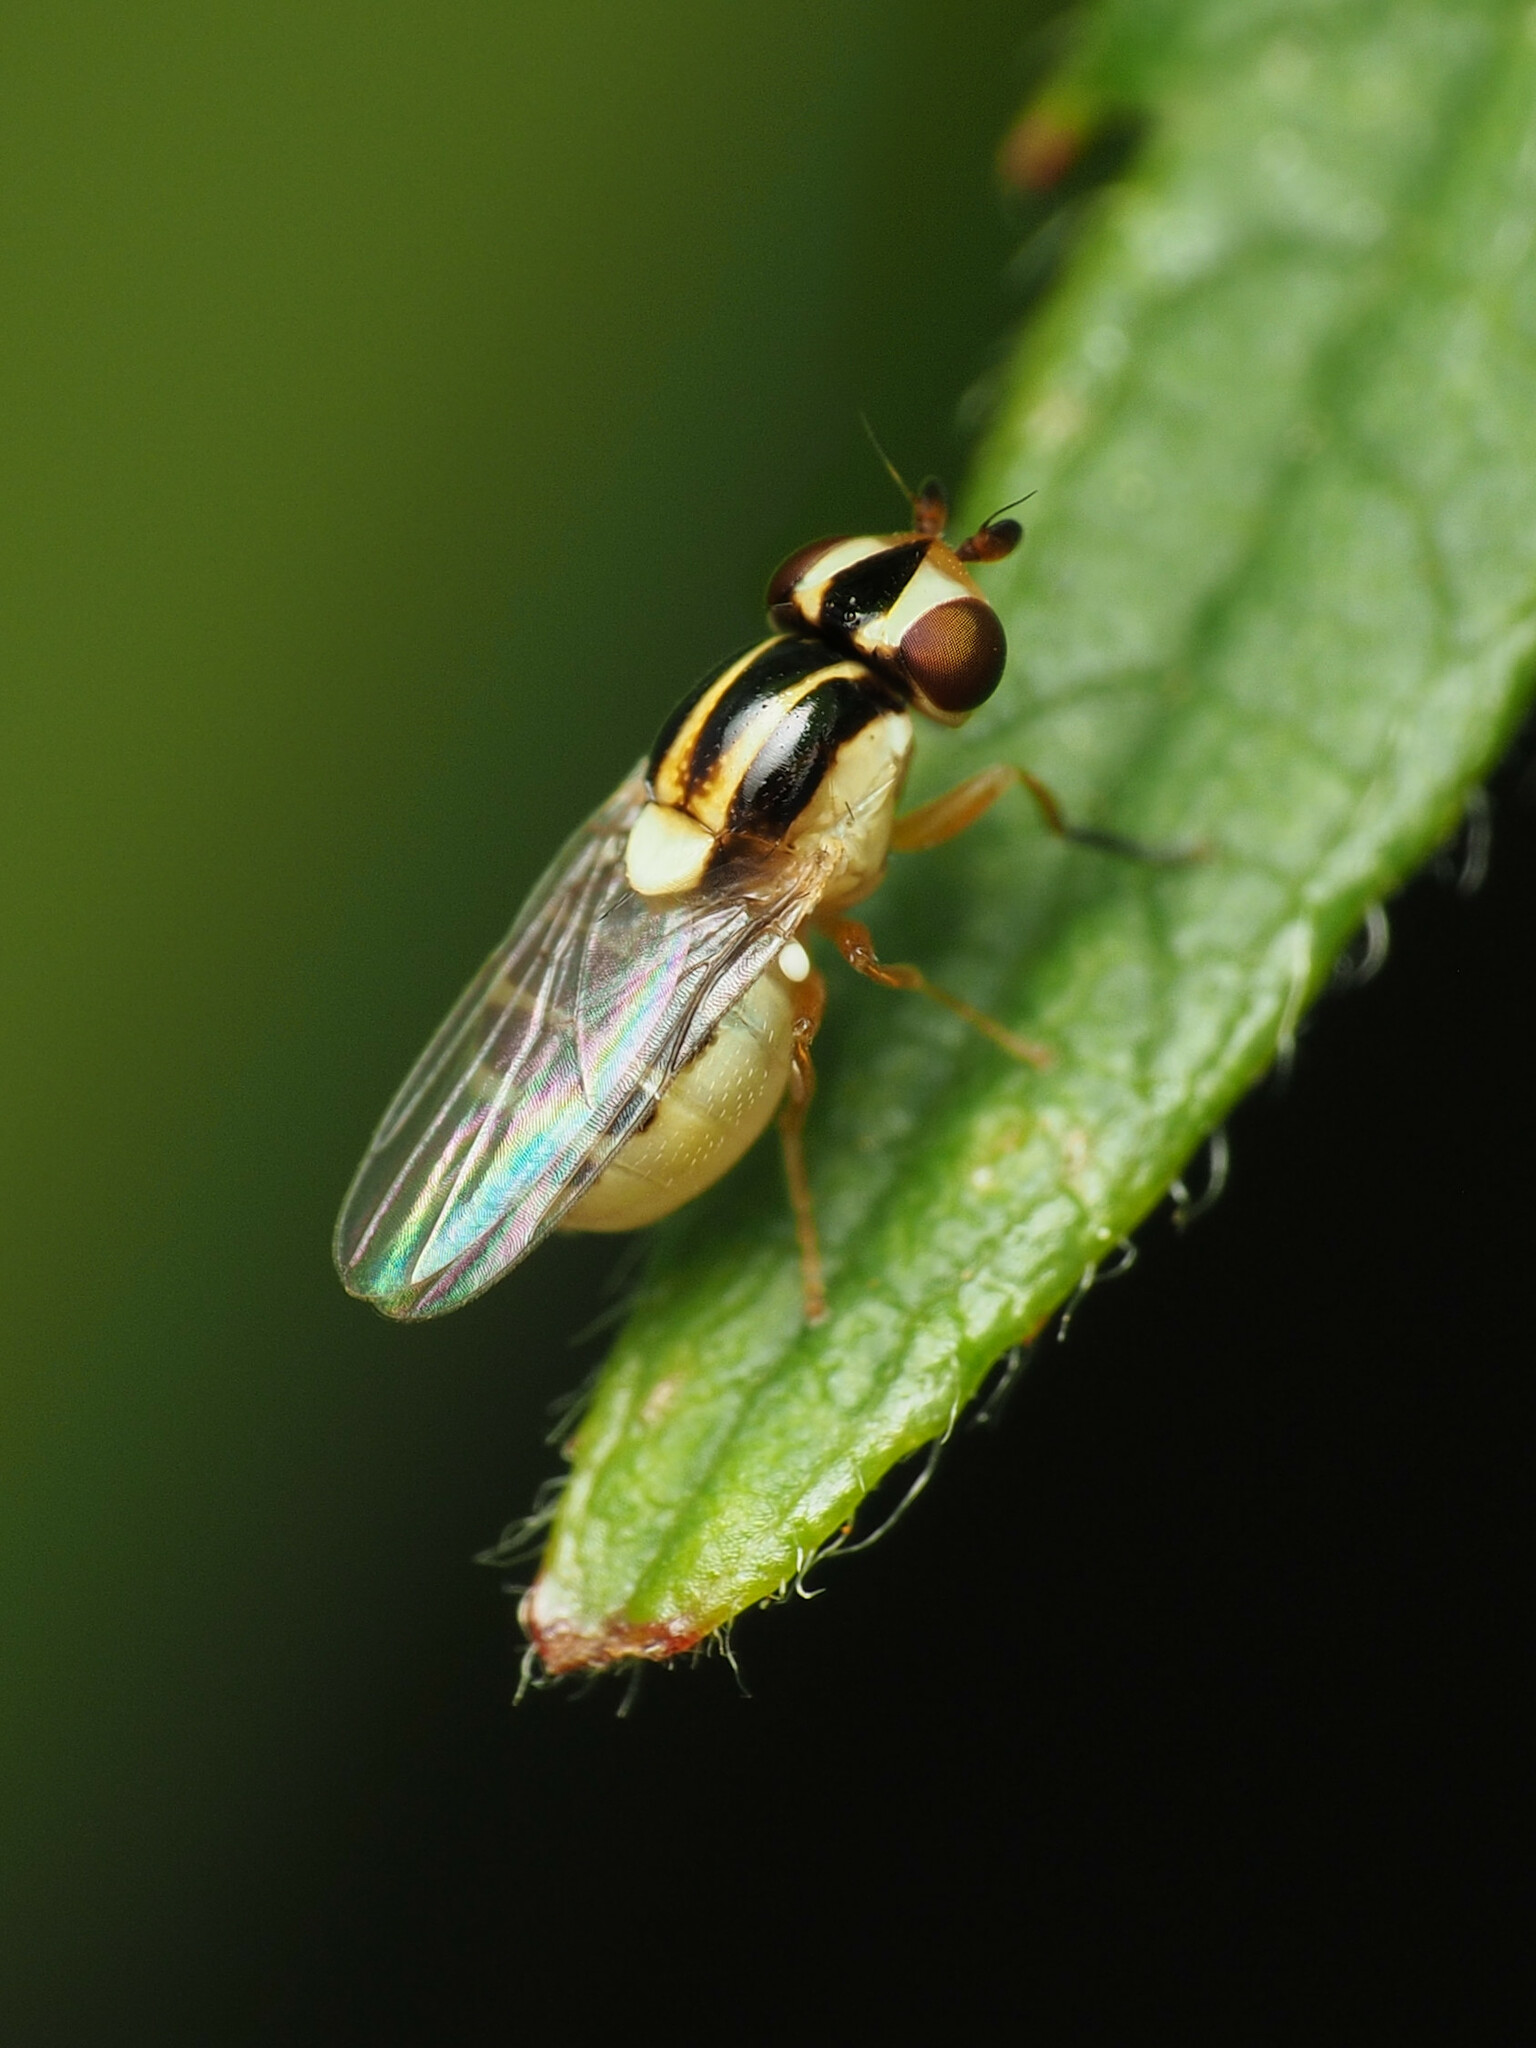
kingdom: Animalia
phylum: Arthropoda
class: Insecta
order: Diptera
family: Chloropidae
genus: Thaumatomyia
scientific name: Thaumatomyia glabra
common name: Chloropid fly
